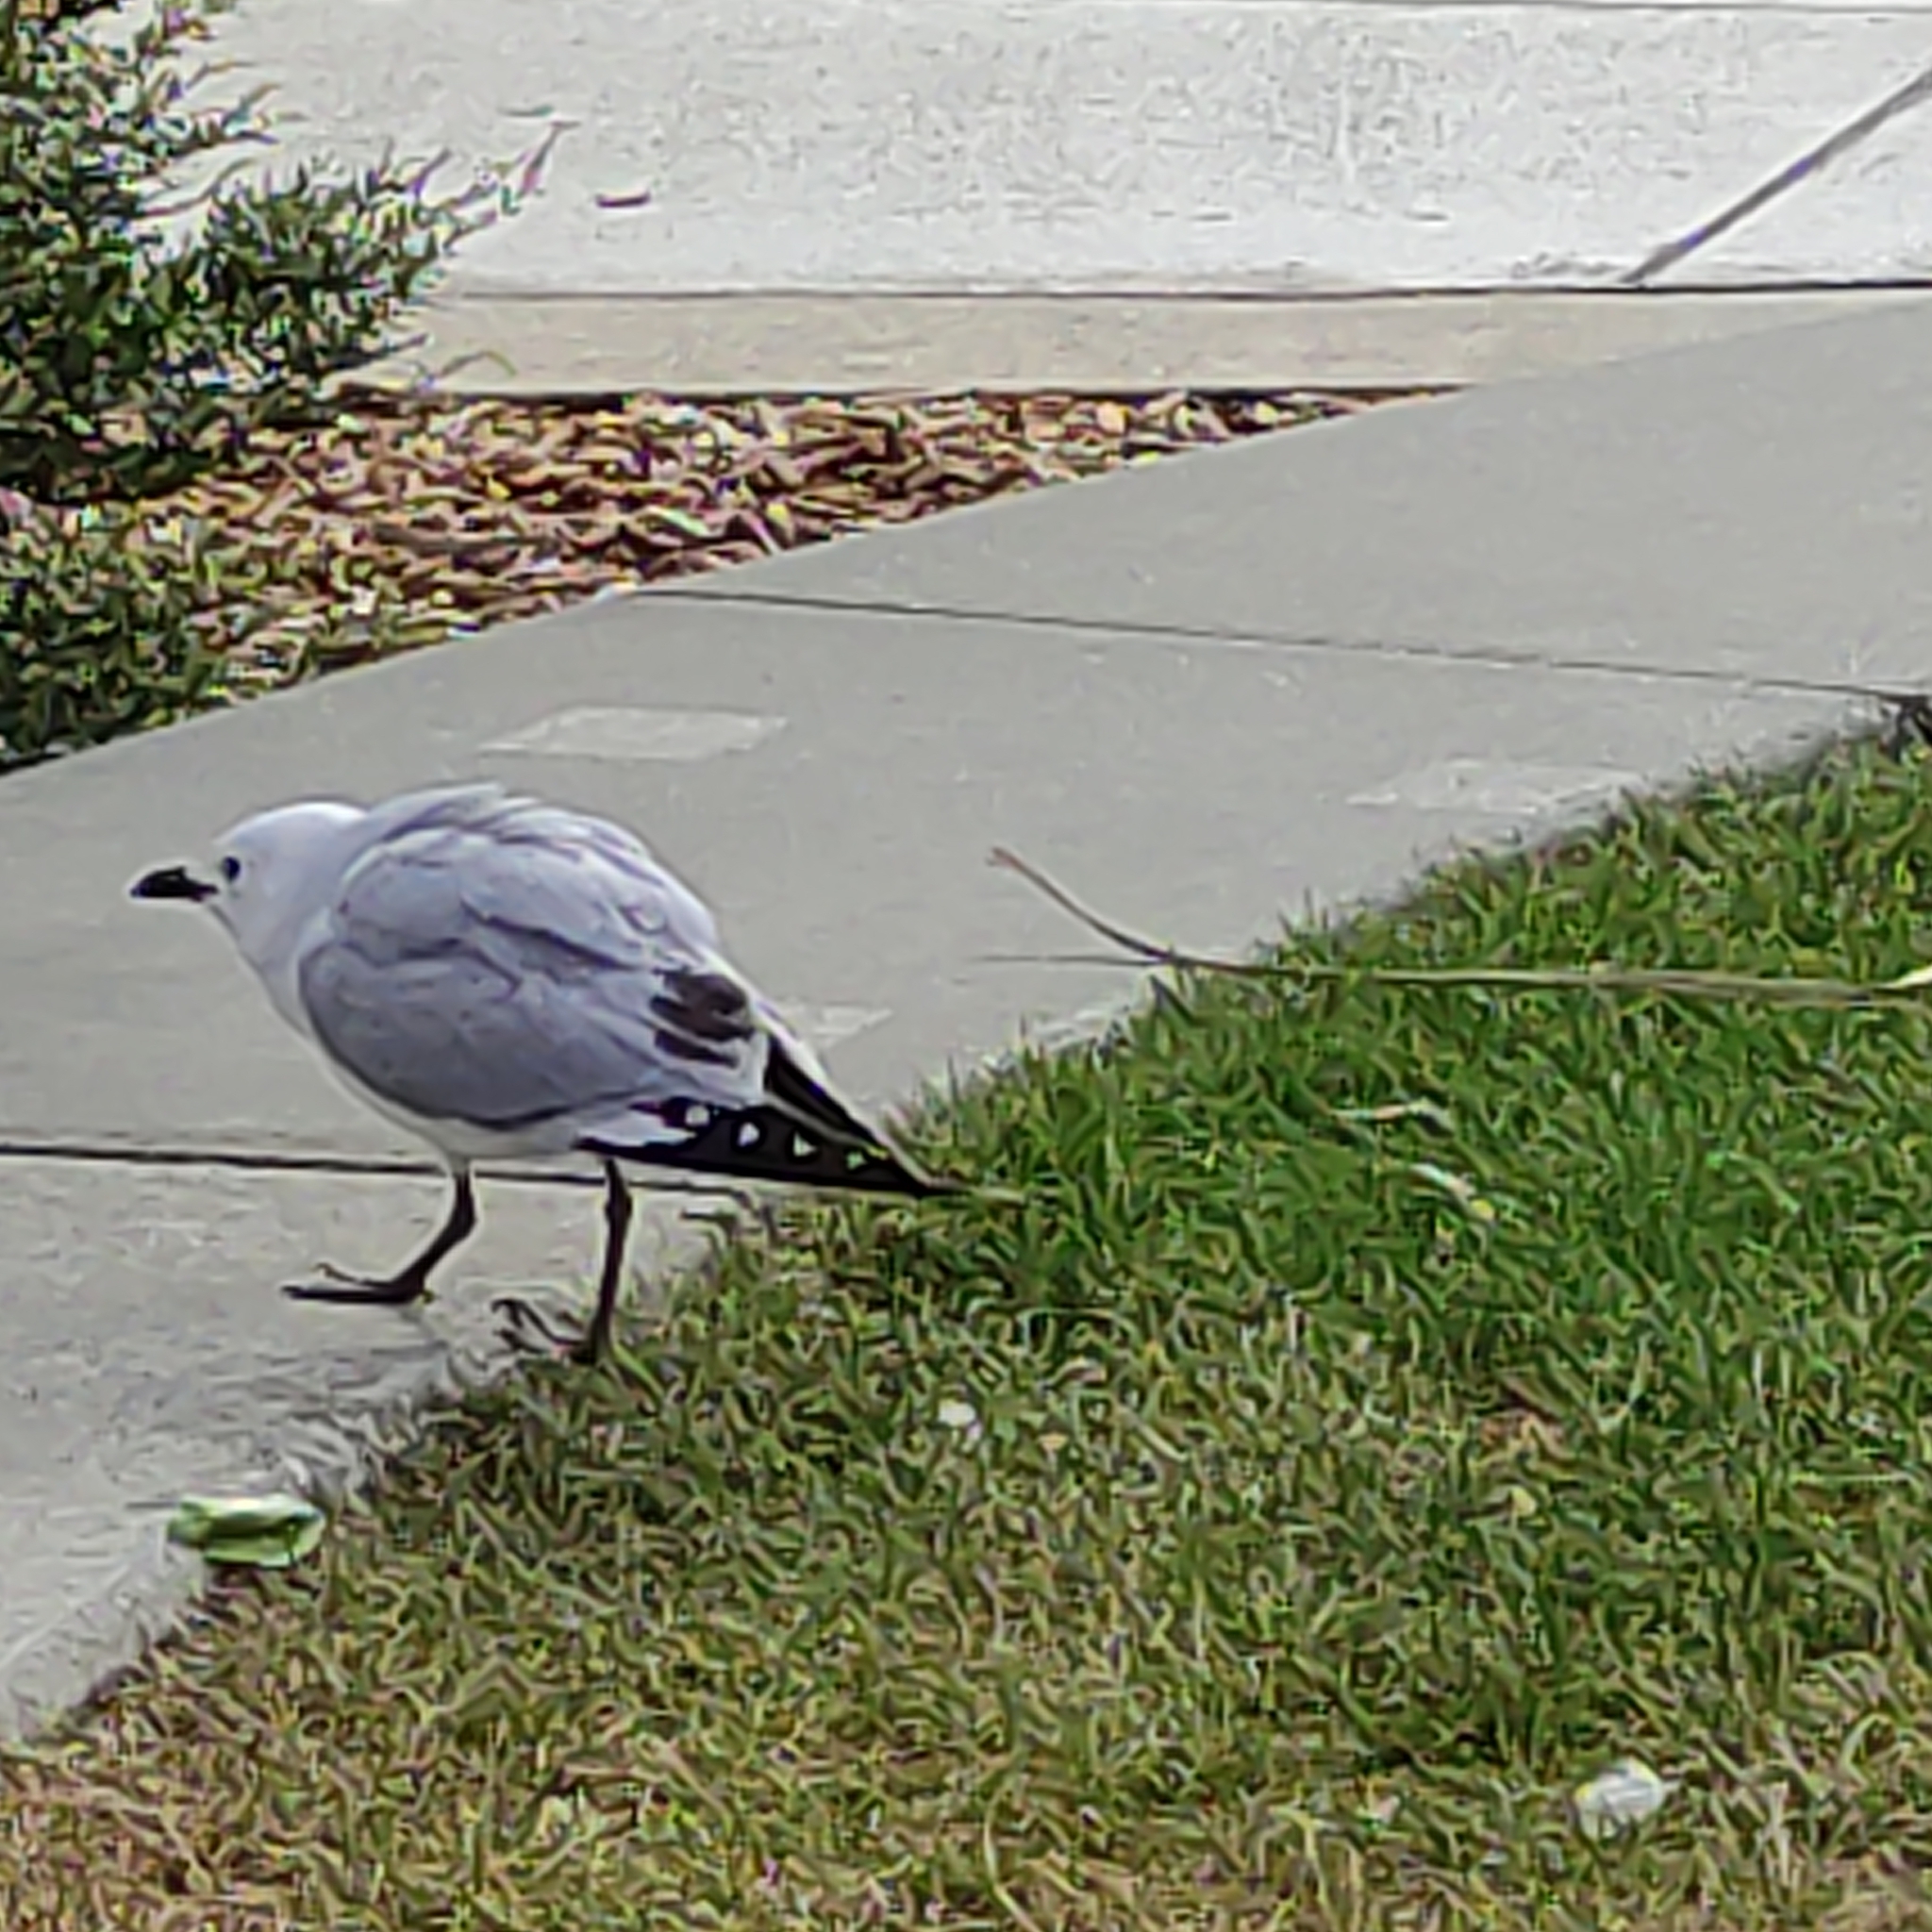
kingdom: Animalia
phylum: Chordata
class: Aves
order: Charadriiformes
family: Laridae
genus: Chroicocephalus
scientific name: Chroicocephalus novaehollandiae
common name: Silver gull
